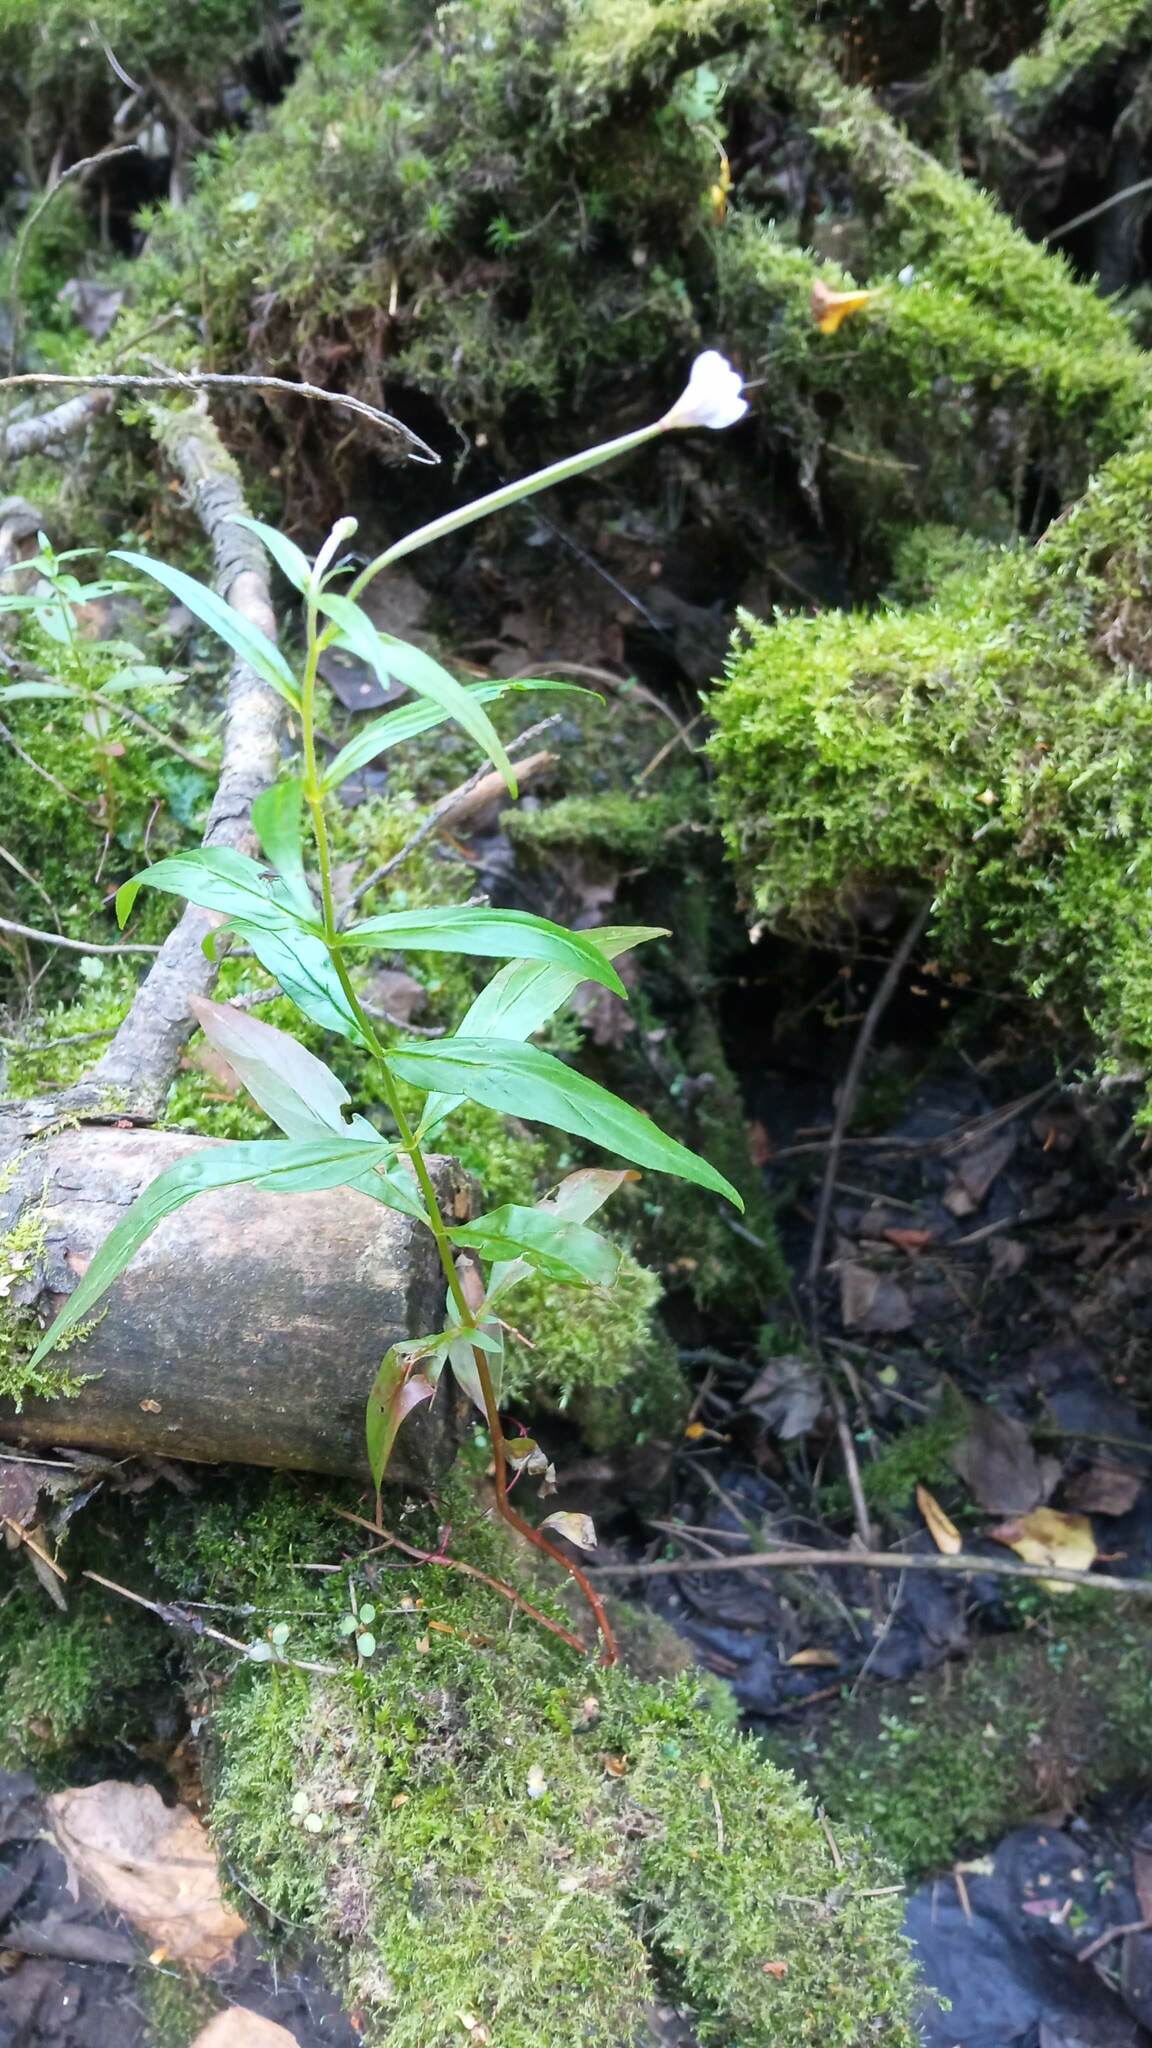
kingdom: Plantae
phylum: Tracheophyta
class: Magnoliopsida
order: Myrtales
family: Onagraceae
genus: Epilobium
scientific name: Epilobium palustre
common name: Marsh willowherb
